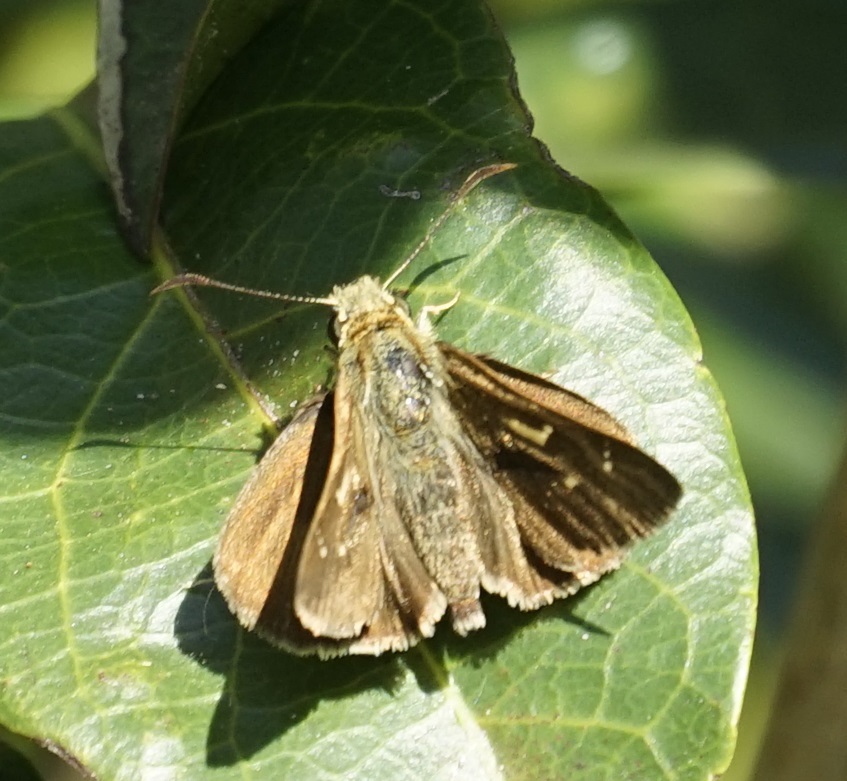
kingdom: Animalia
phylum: Arthropoda
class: Insecta
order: Lepidoptera
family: Hesperiidae
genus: Toxidia
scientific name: Toxidia
